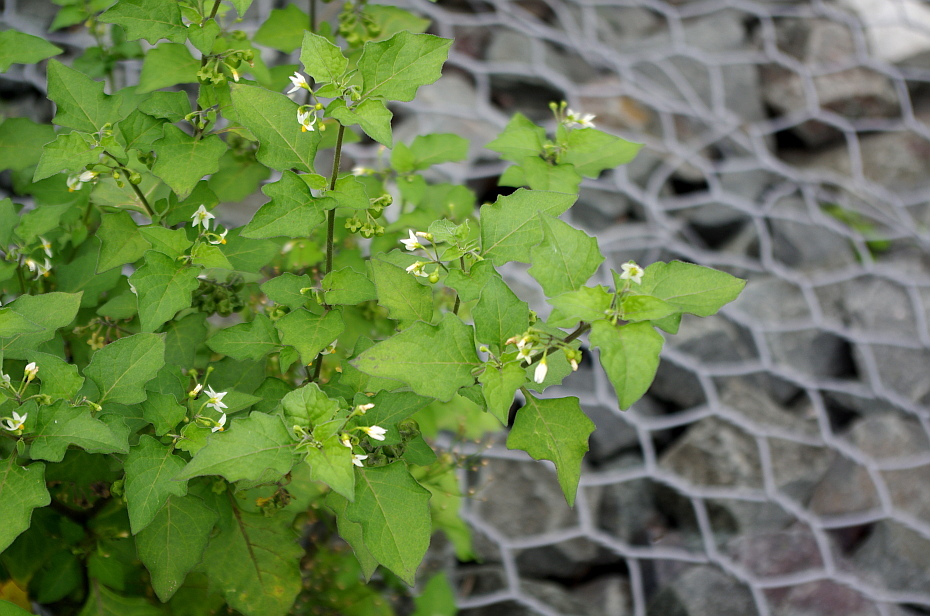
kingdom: Plantae
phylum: Tracheophyta
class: Magnoliopsida
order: Solanales
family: Solanaceae
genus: Solanum
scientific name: Solanum decipiens
